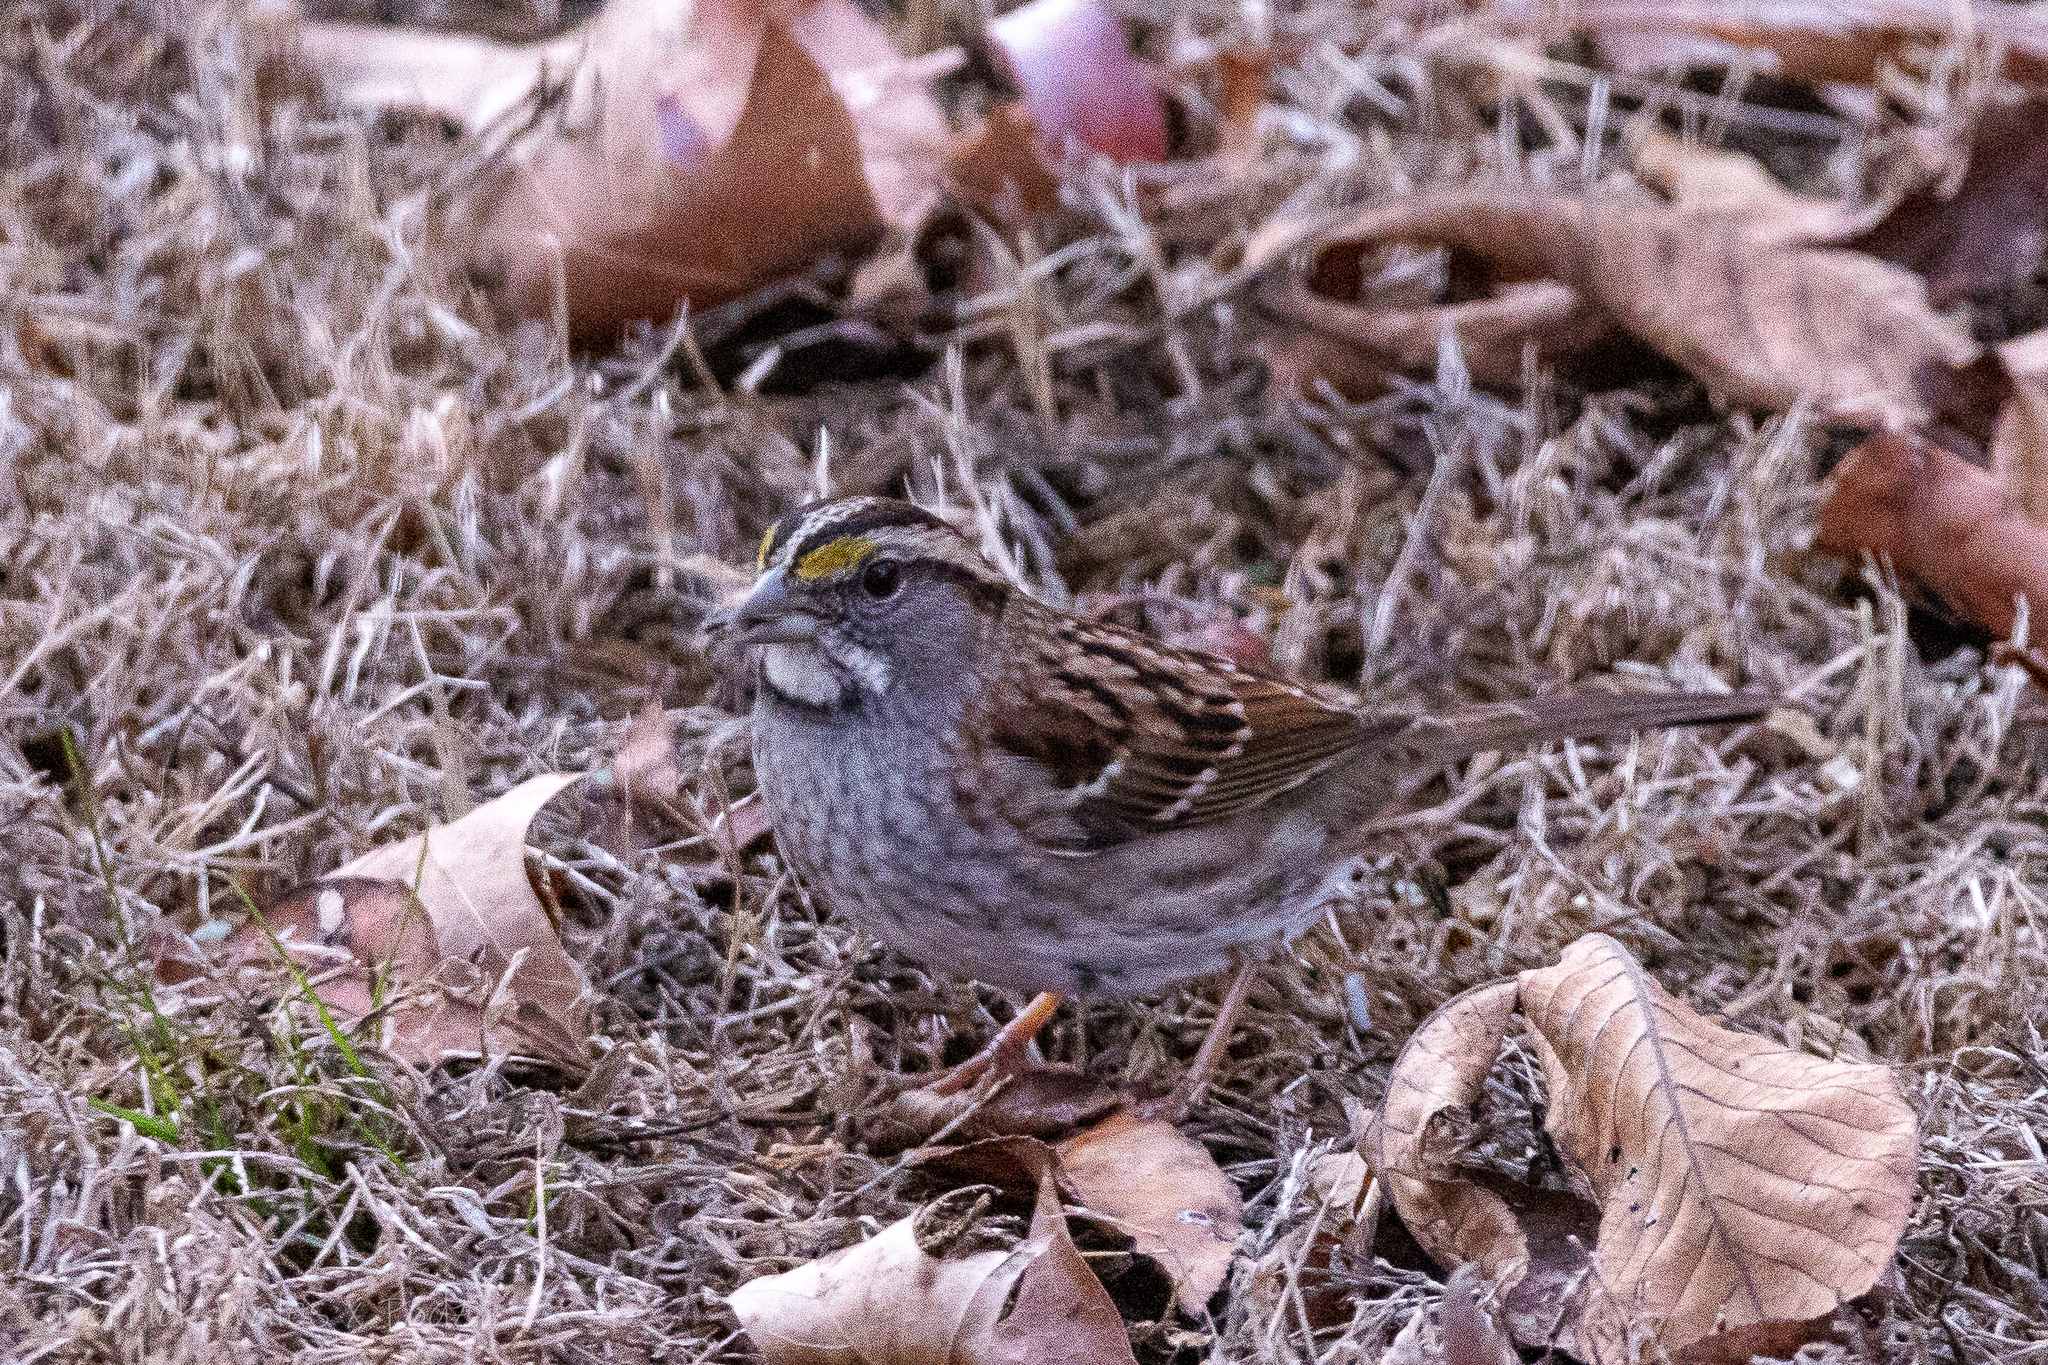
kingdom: Animalia
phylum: Chordata
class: Aves
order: Passeriformes
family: Passerellidae
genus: Zonotrichia
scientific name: Zonotrichia albicollis
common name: White-throated sparrow
